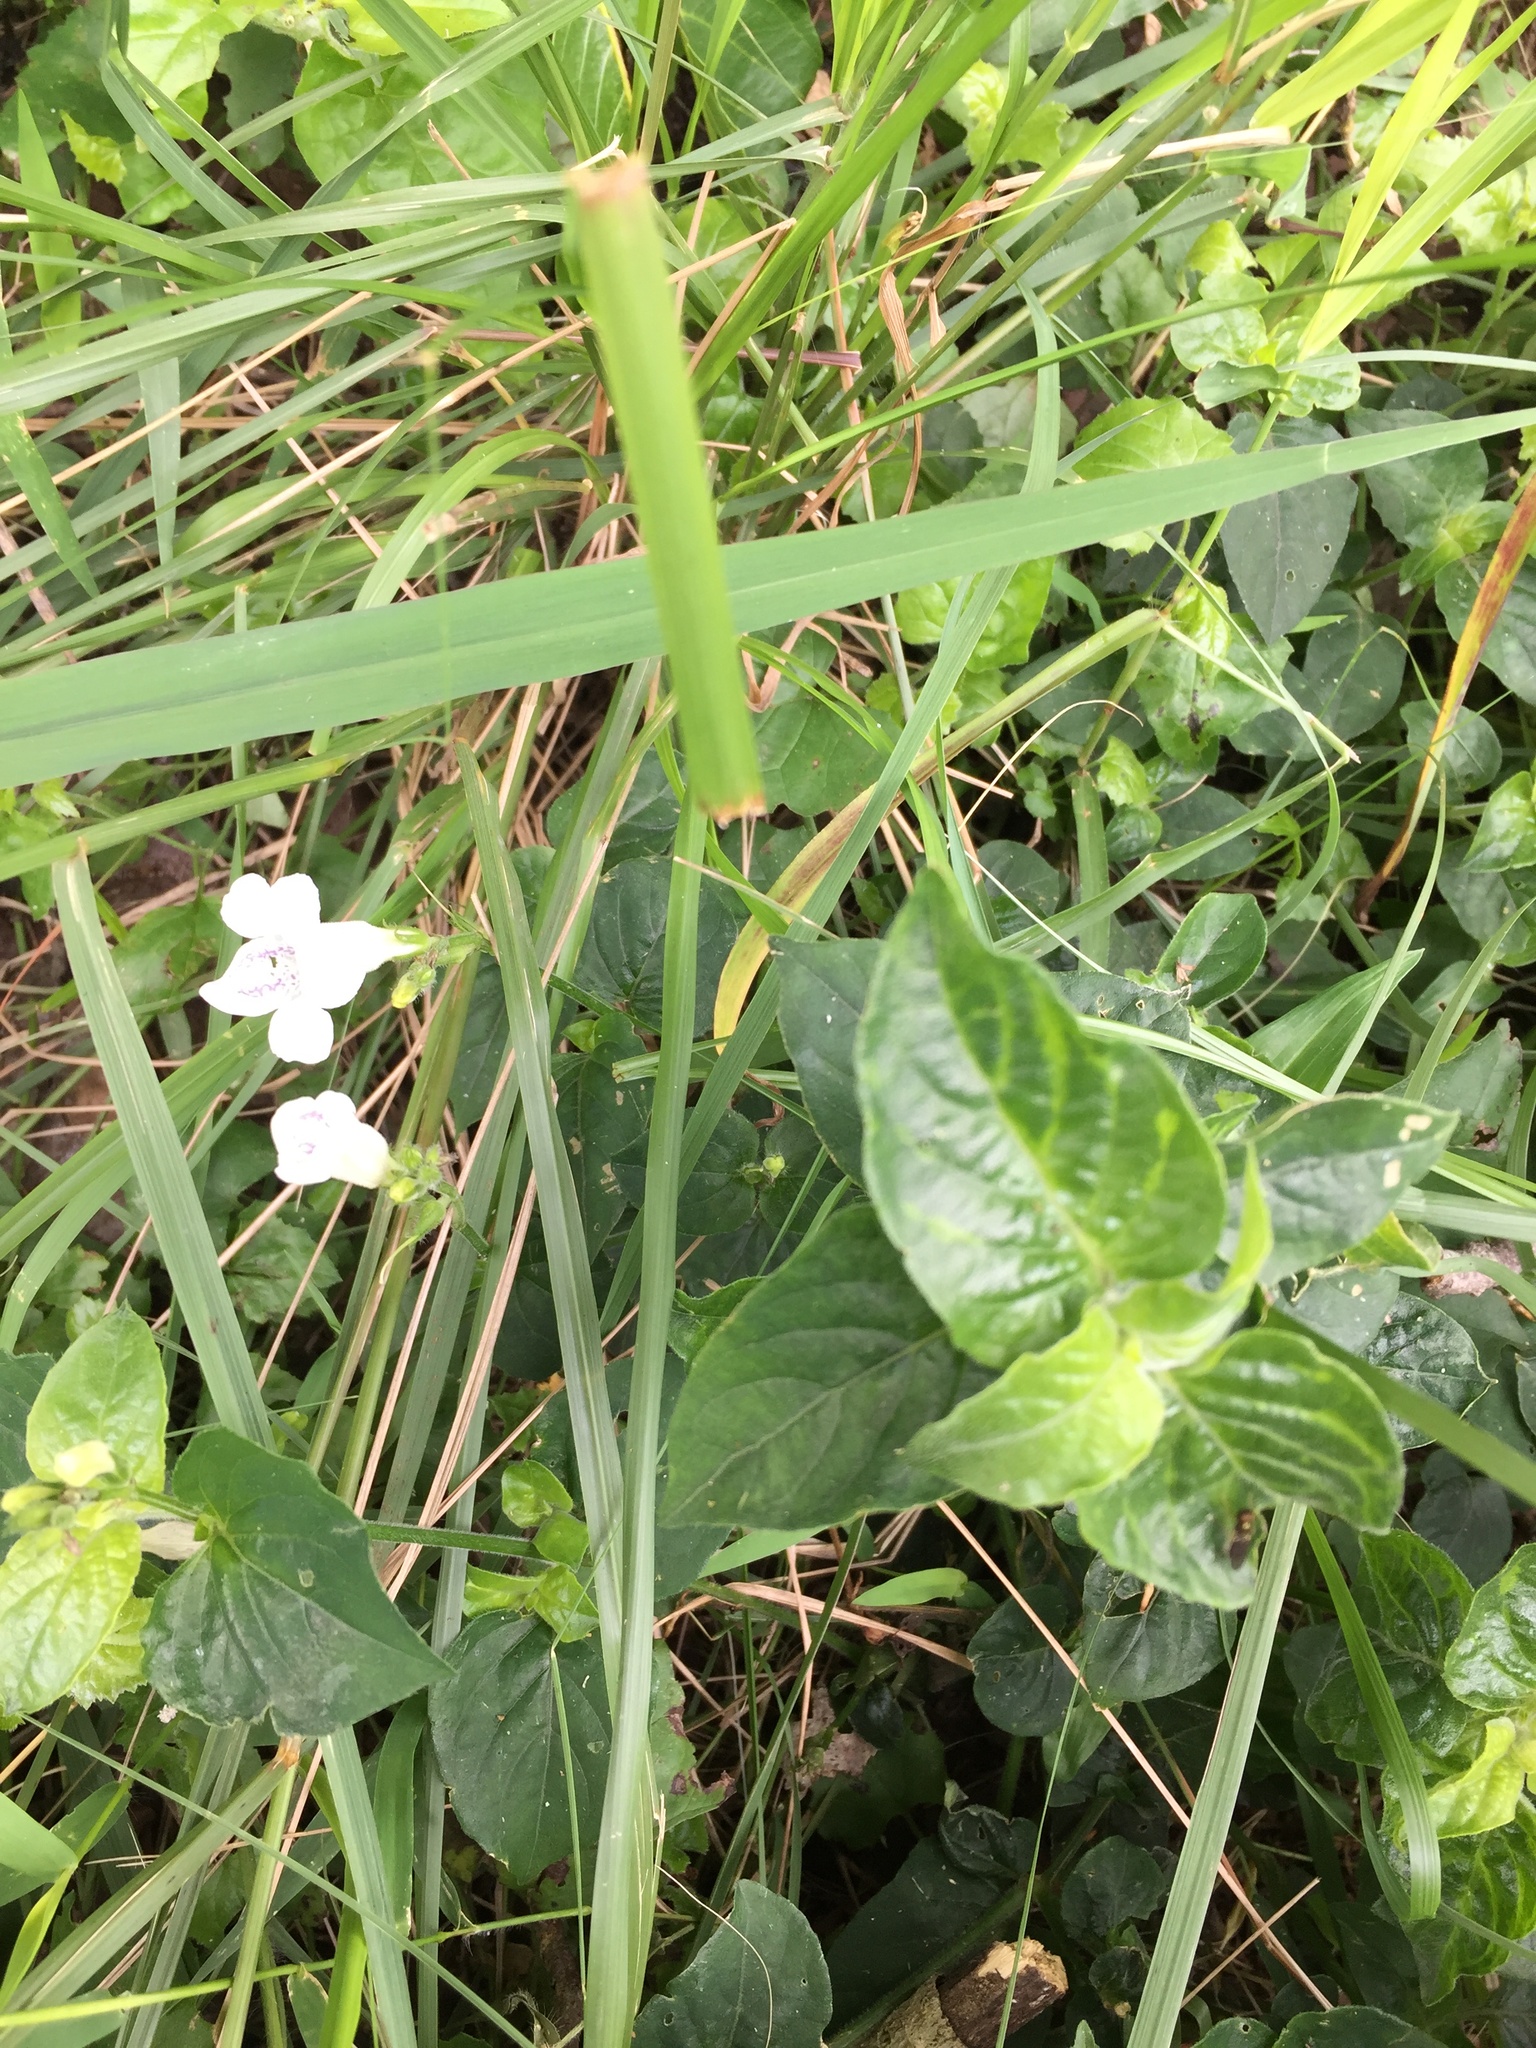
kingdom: Plantae
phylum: Tracheophyta
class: Magnoliopsida
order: Lamiales
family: Acanthaceae
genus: Asystasia
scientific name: Asystasia intrusa
